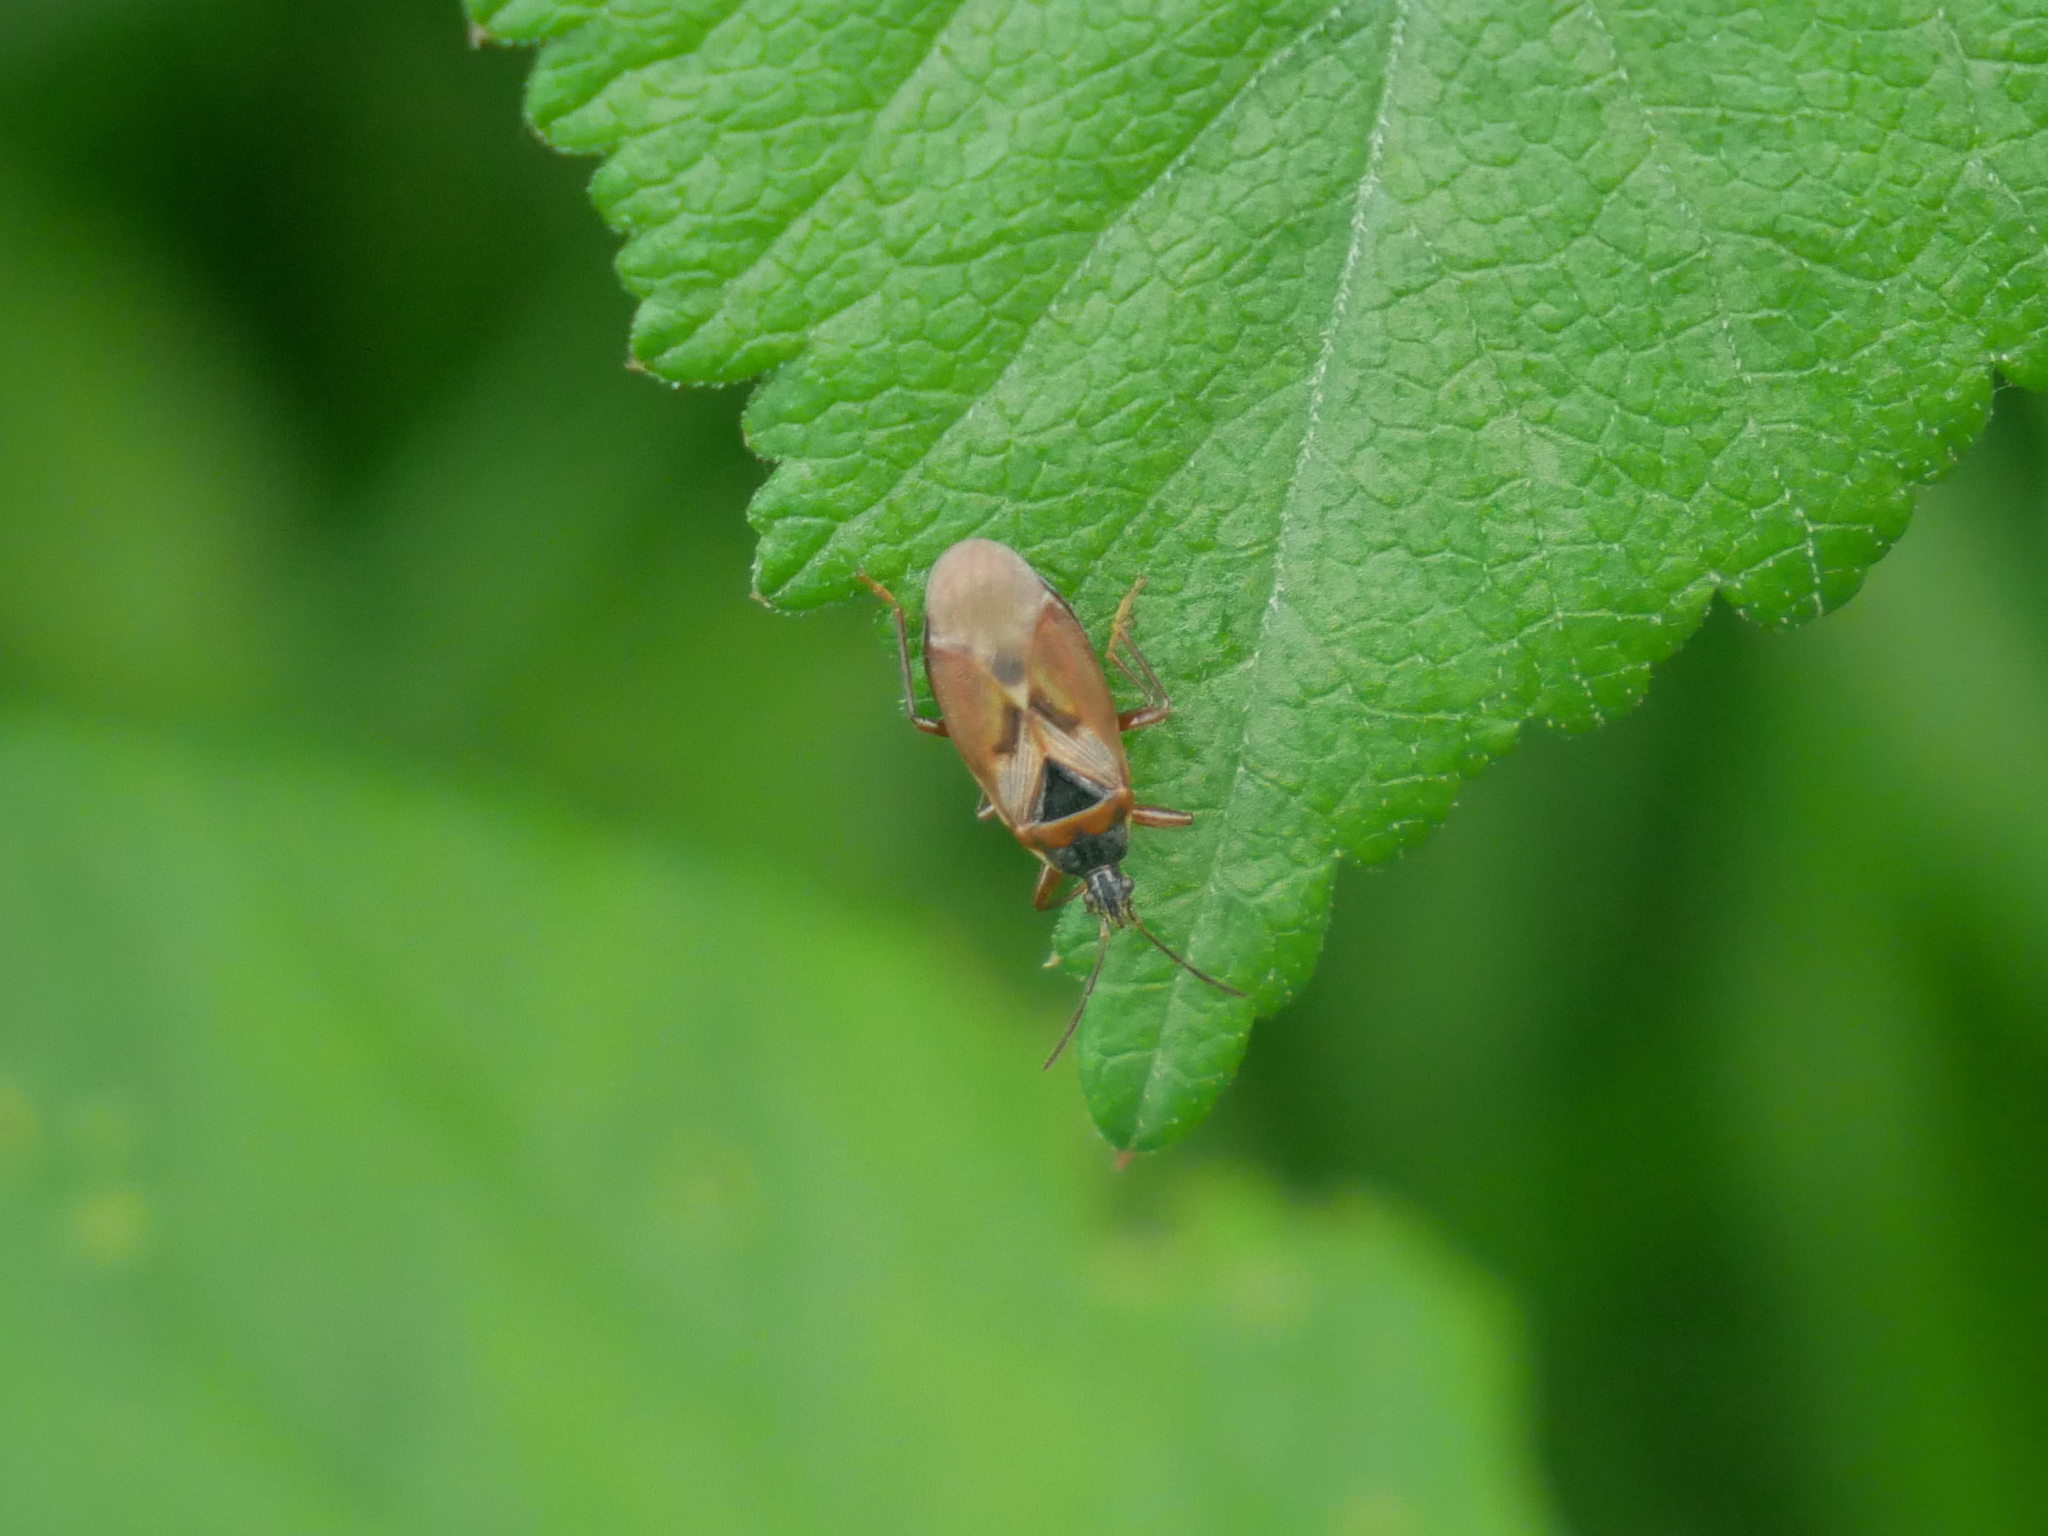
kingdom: Animalia
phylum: Arthropoda
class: Insecta
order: Hemiptera
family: Rhyparochromidae
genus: Gastrodes
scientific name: Gastrodes abietum
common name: Spruce cone bug
